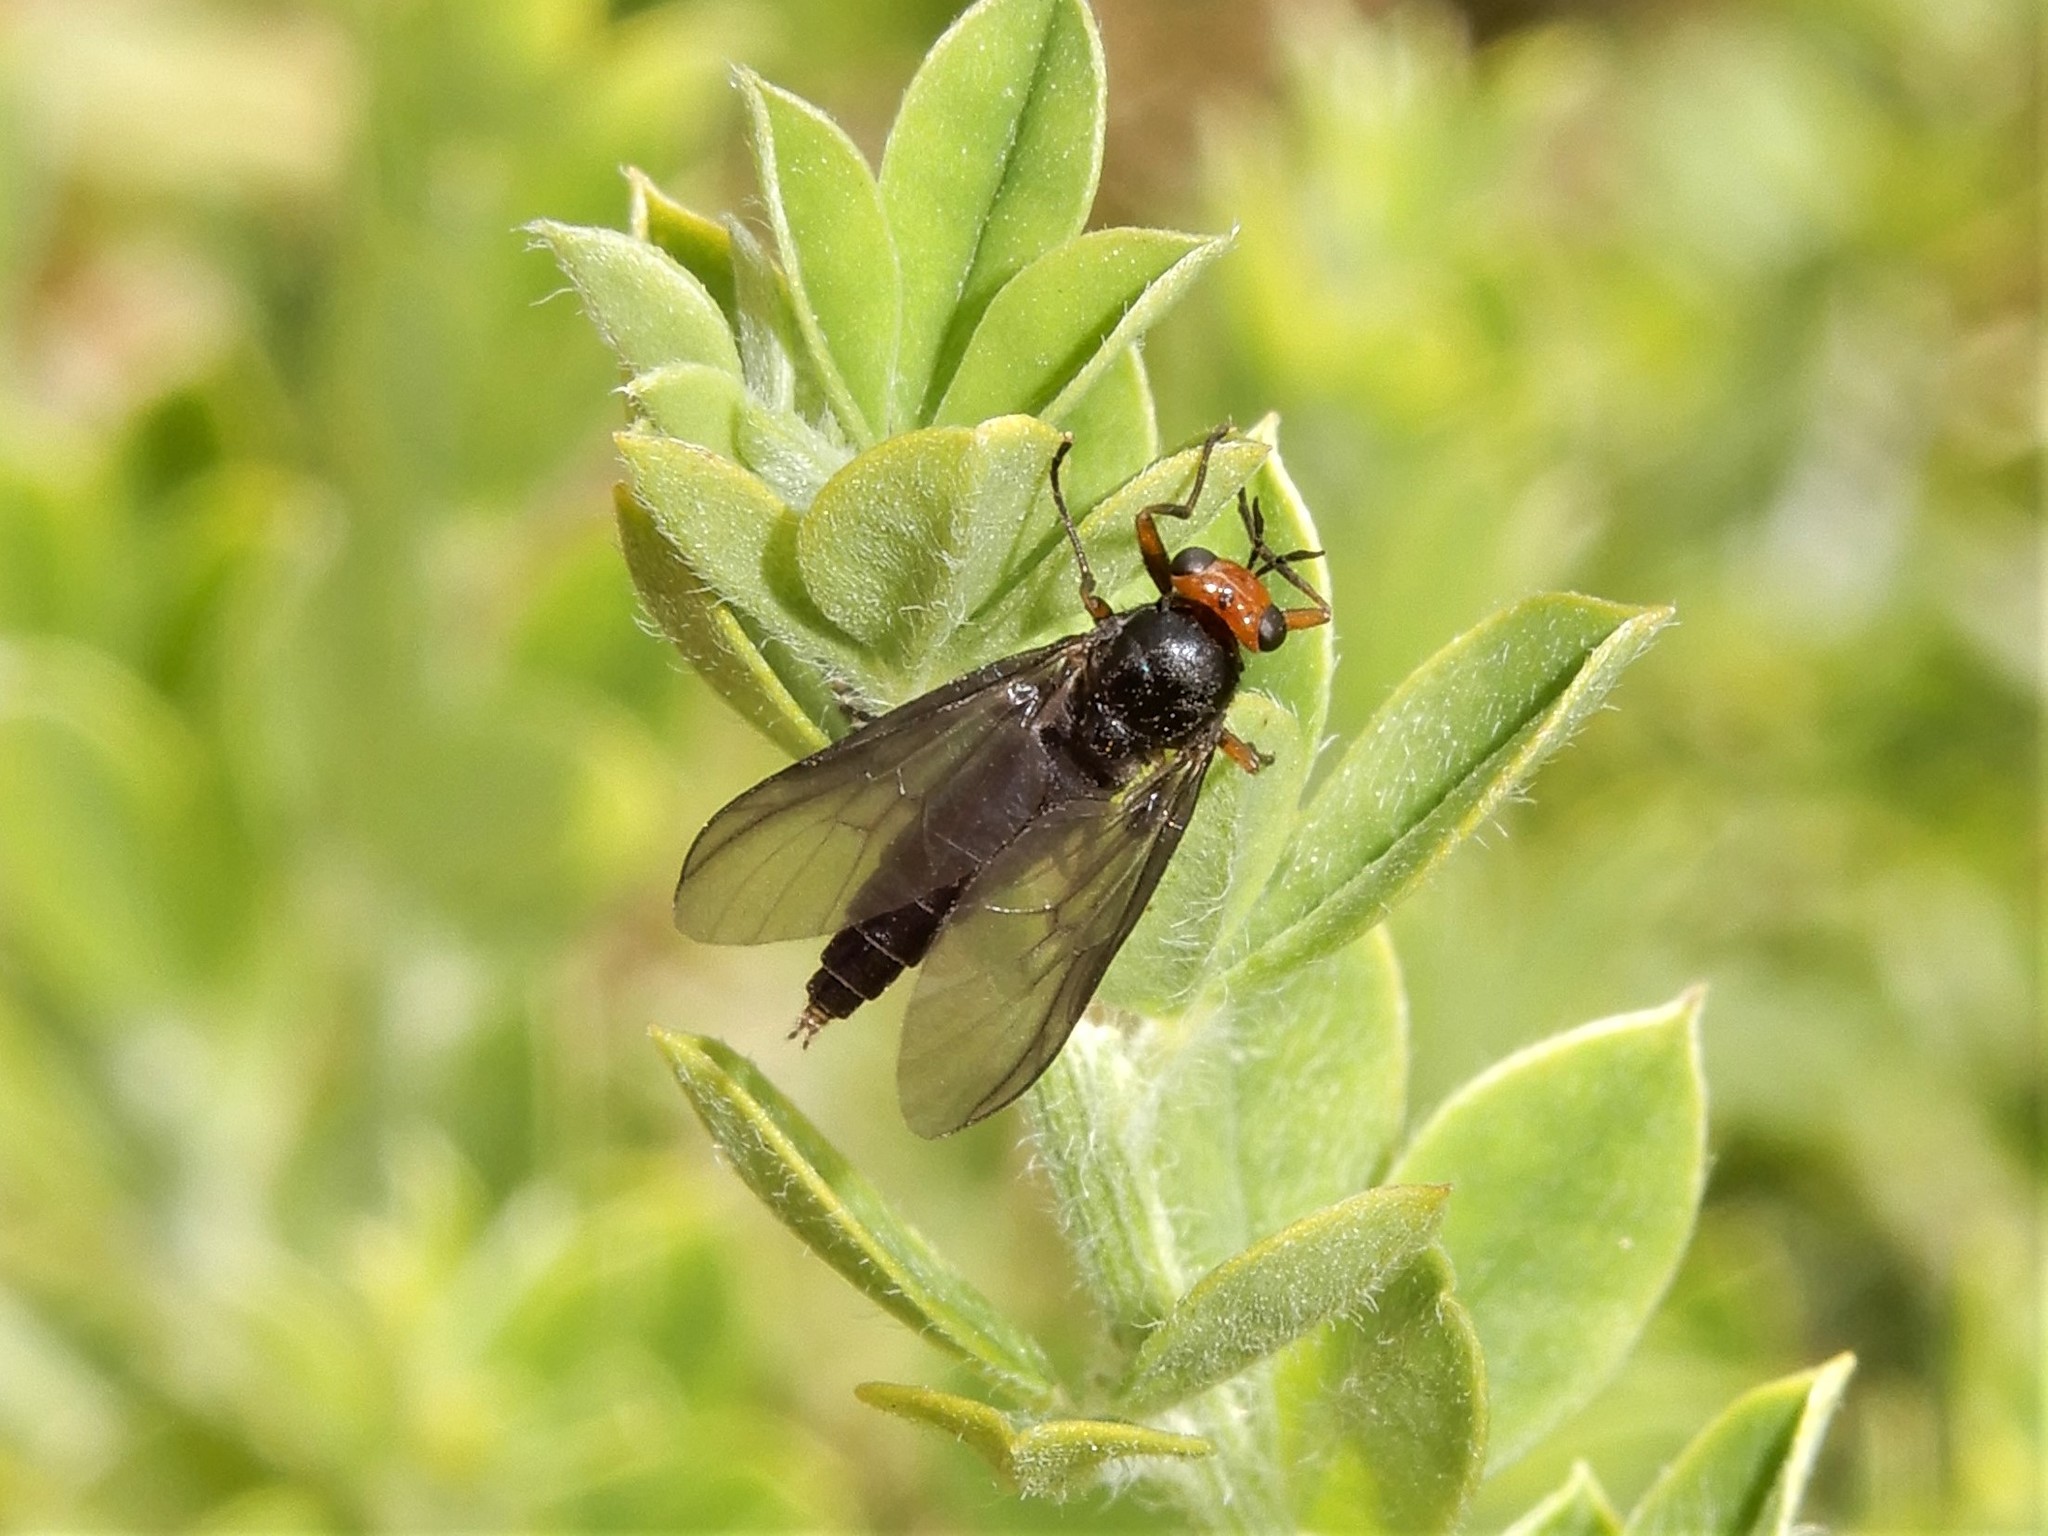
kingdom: Animalia
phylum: Arthropoda
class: Insecta
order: Diptera
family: Stratiomyidae
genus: Inopus
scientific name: Inopus rubriceps
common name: Soldier fly
